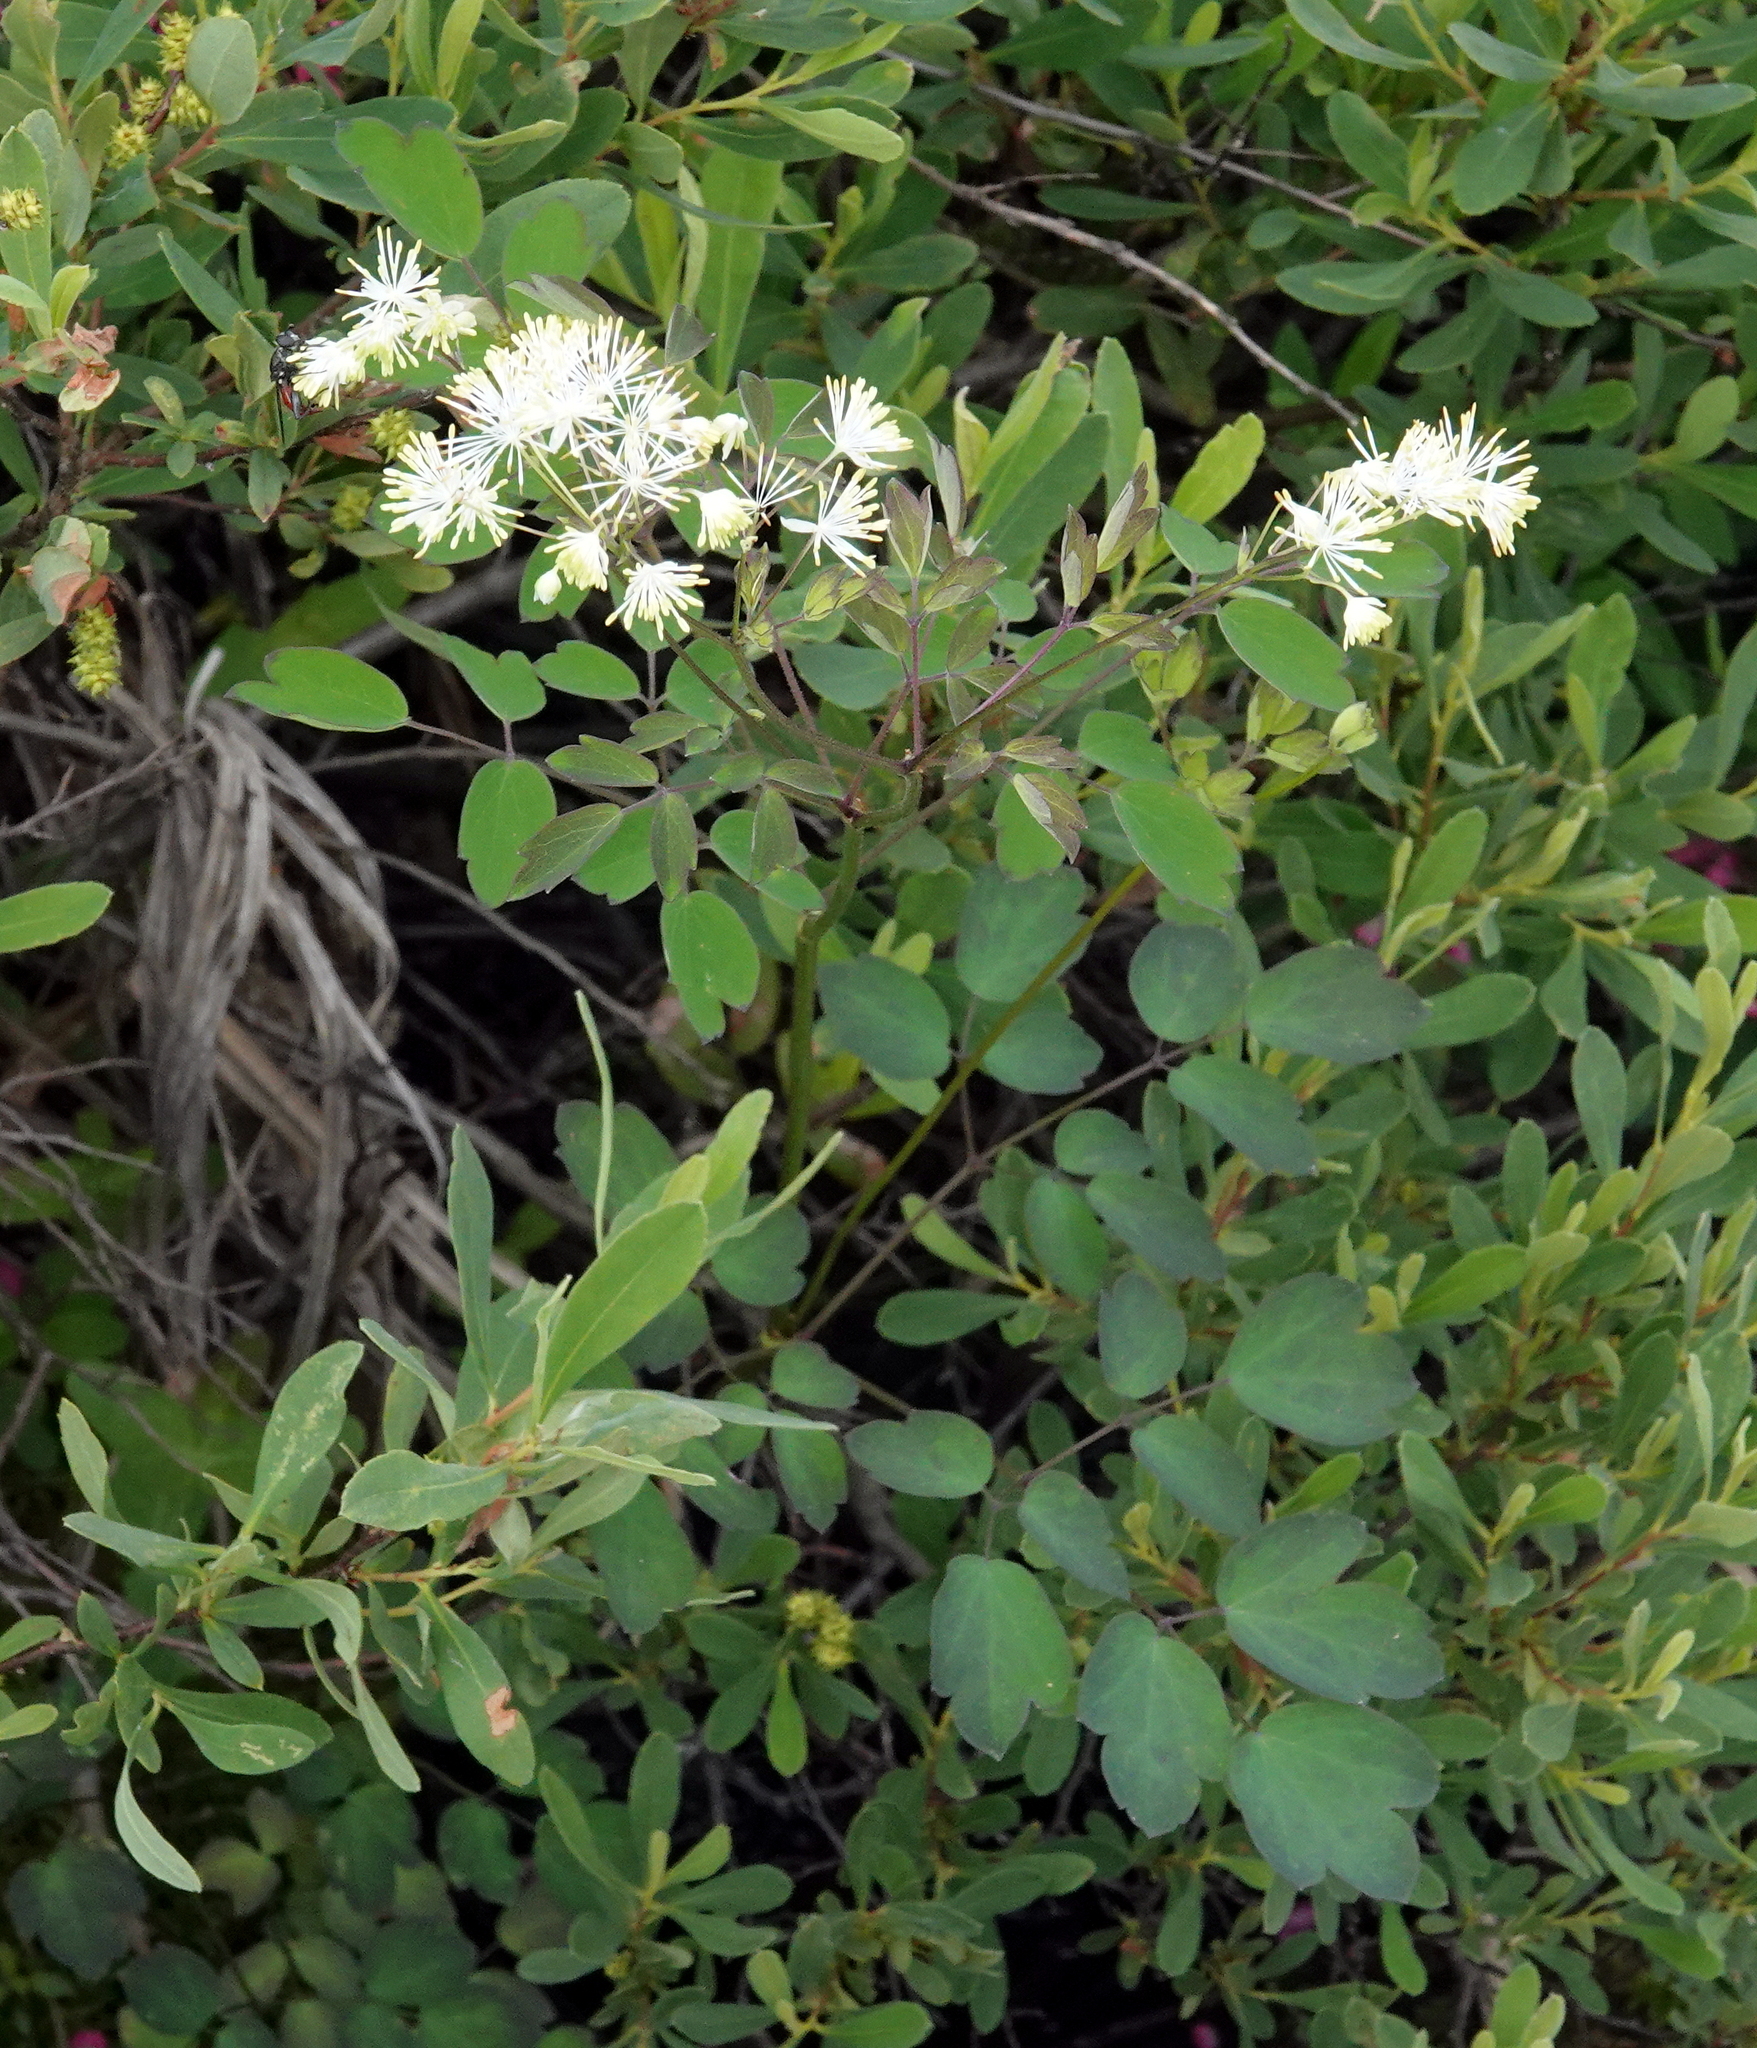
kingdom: Plantae
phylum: Tracheophyta
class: Magnoliopsida
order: Ranunculales
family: Ranunculaceae
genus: Thalictrum
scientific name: Thalictrum pubescens
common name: King-of-the-meadow
